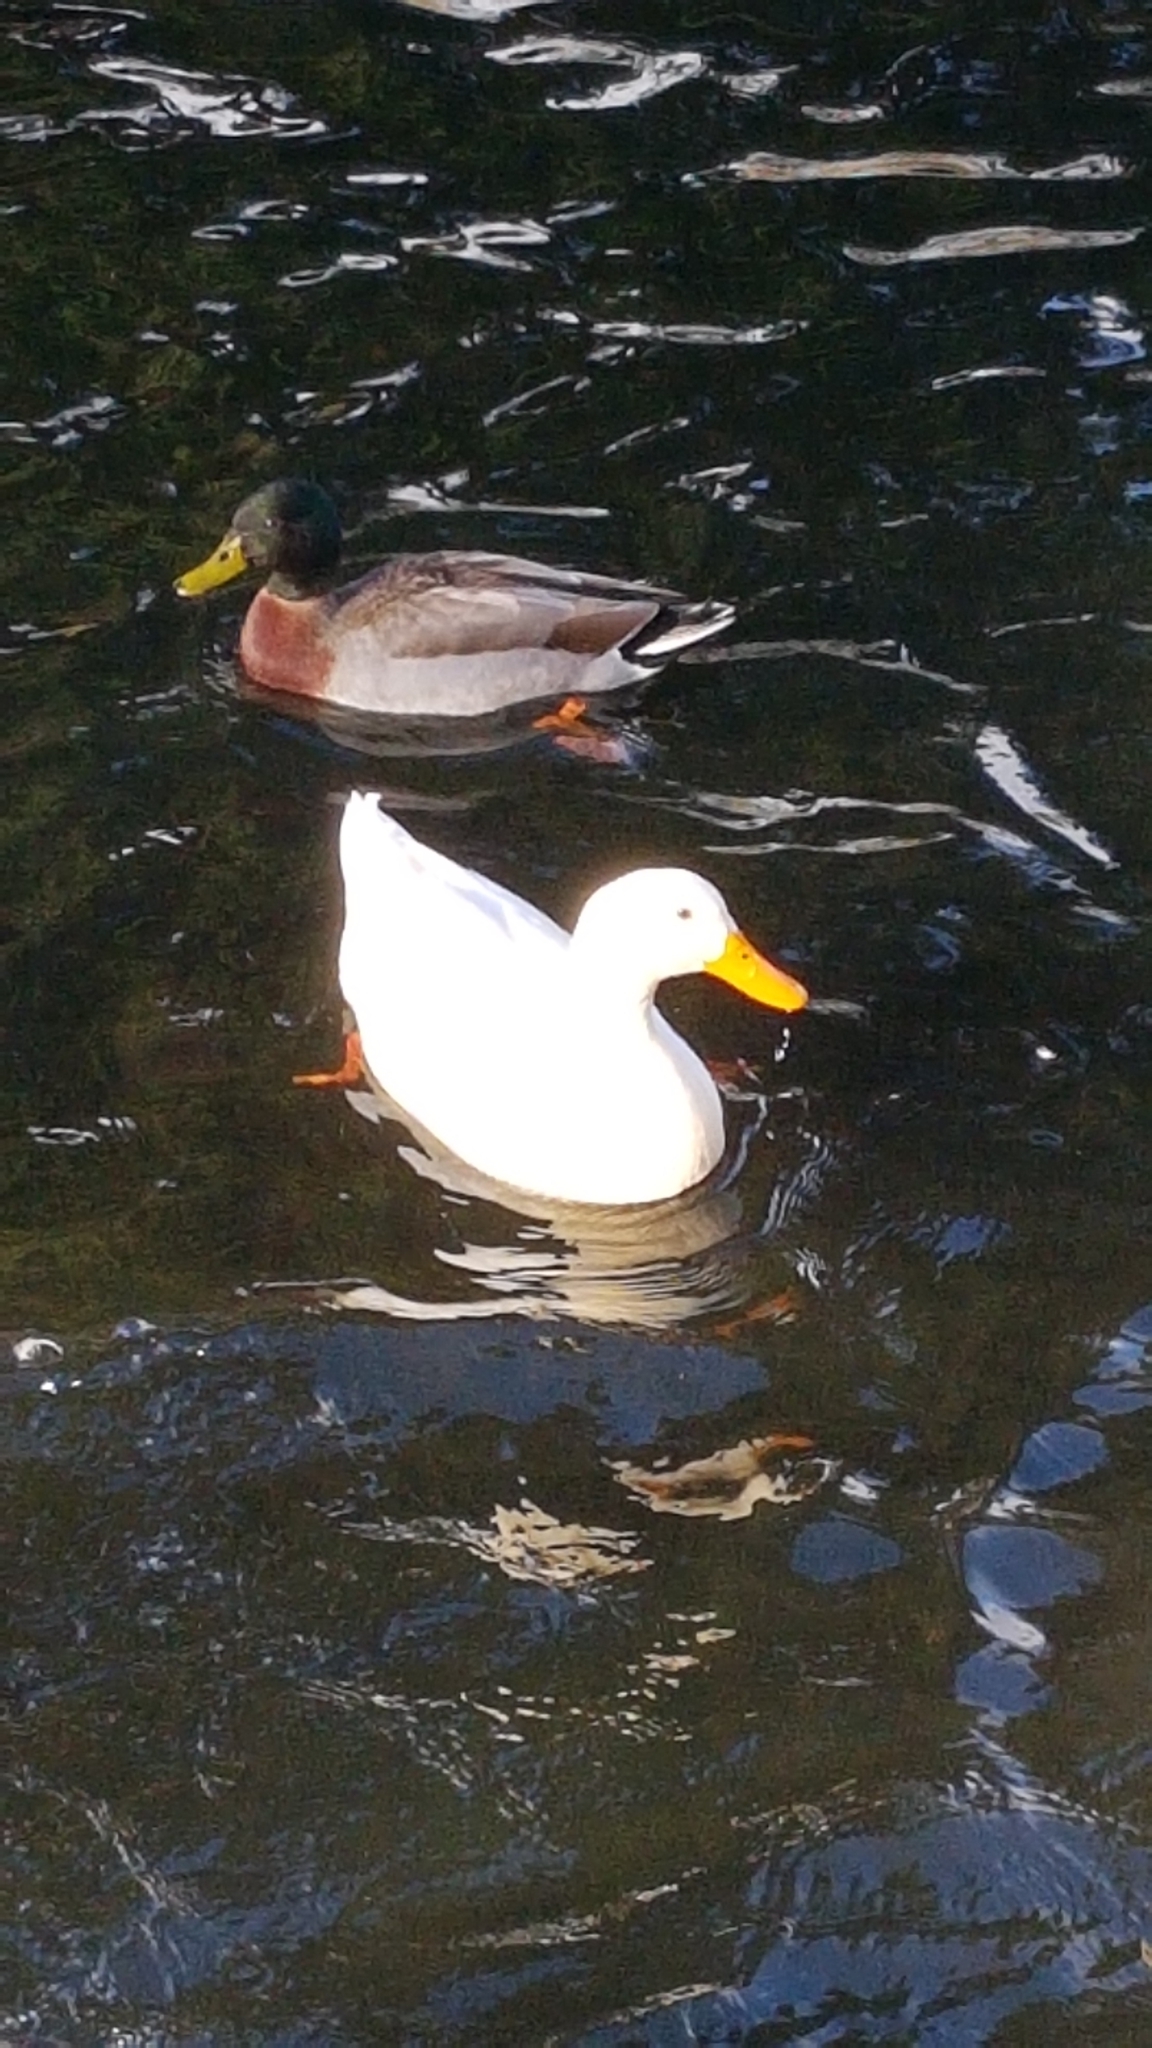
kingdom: Animalia
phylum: Chordata
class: Aves
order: Anseriformes
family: Anatidae
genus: Anas
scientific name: Anas platyrhynchos
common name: Mallard
